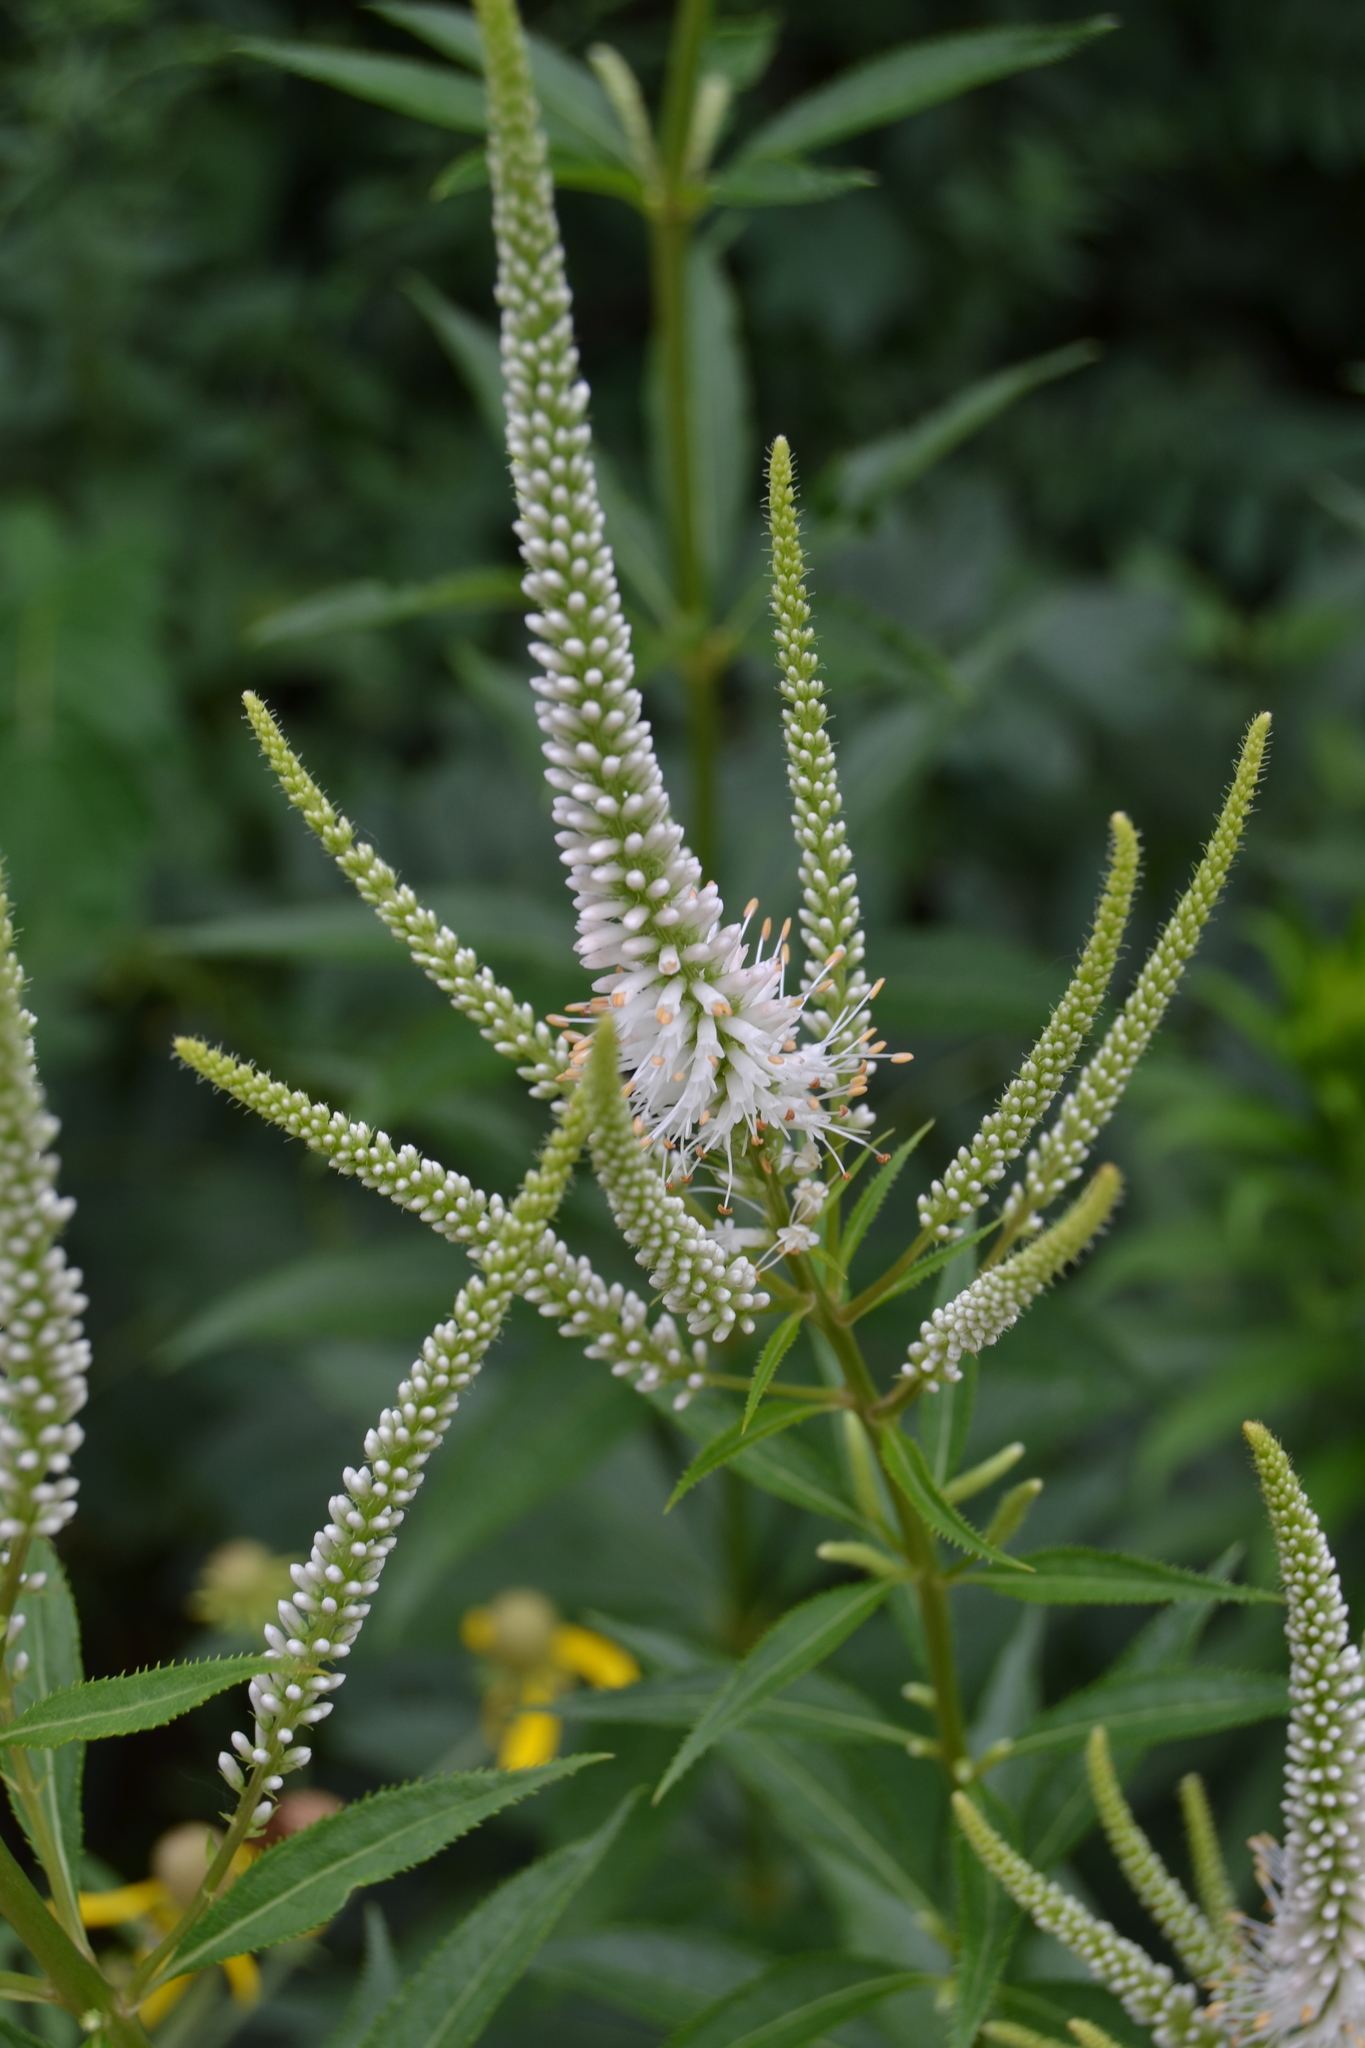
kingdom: Plantae
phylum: Tracheophyta
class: Magnoliopsida
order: Lamiales
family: Plantaginaceae
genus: Veronicastrum
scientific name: Veronicastrum virginicum
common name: Blackroot
